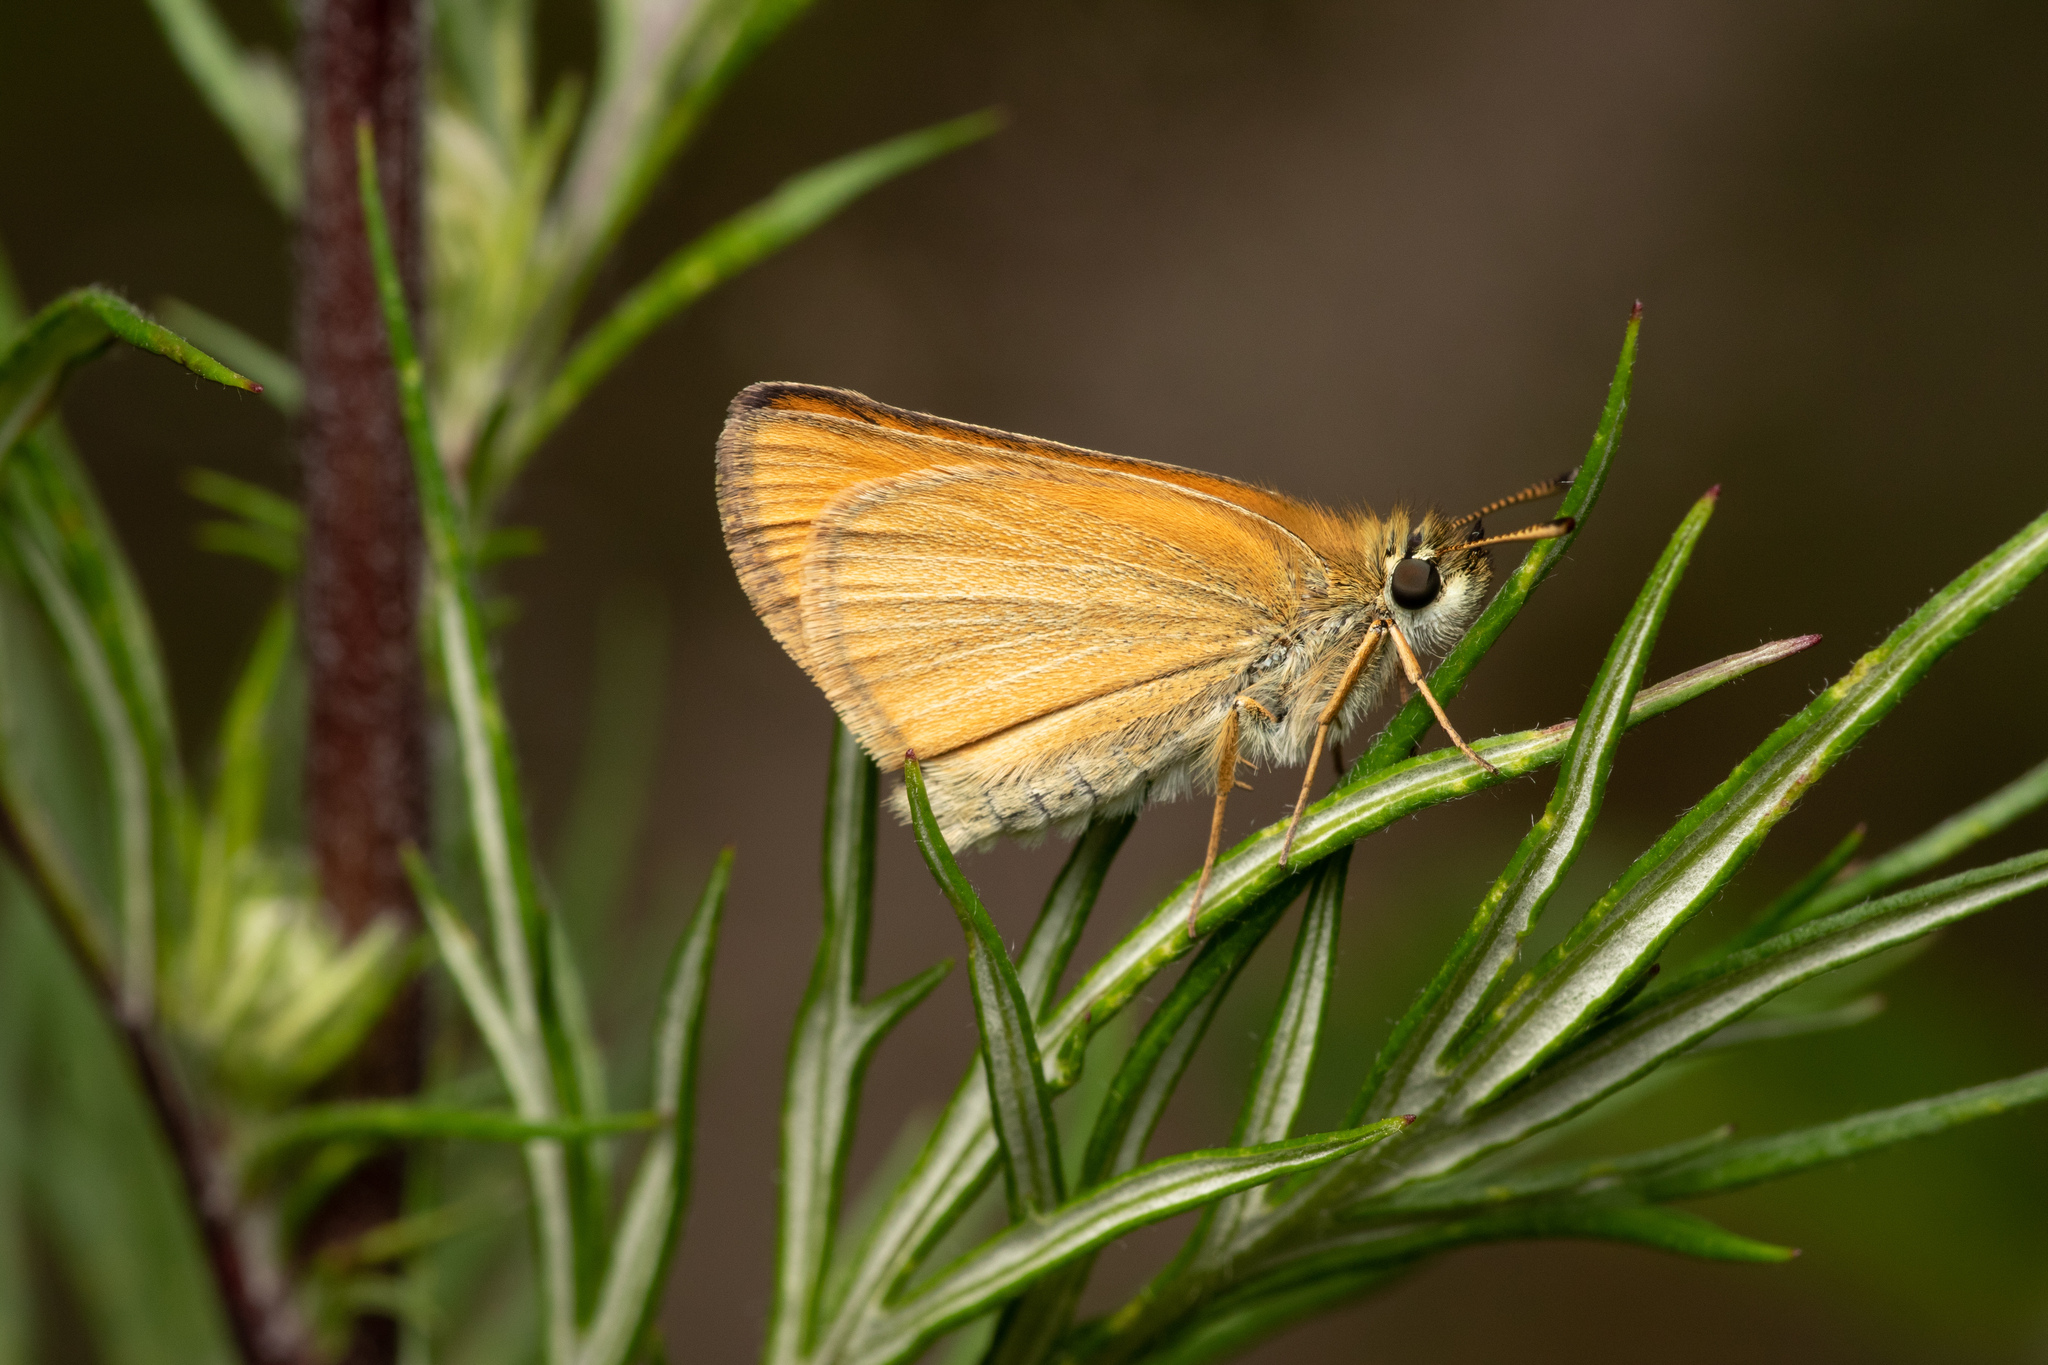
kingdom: Animalia
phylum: Arthropoda
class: Insecta
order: Lepidoptera
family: Hesperiidae
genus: Thymelicus
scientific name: Thymelicus lineola
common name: Essex skipper
